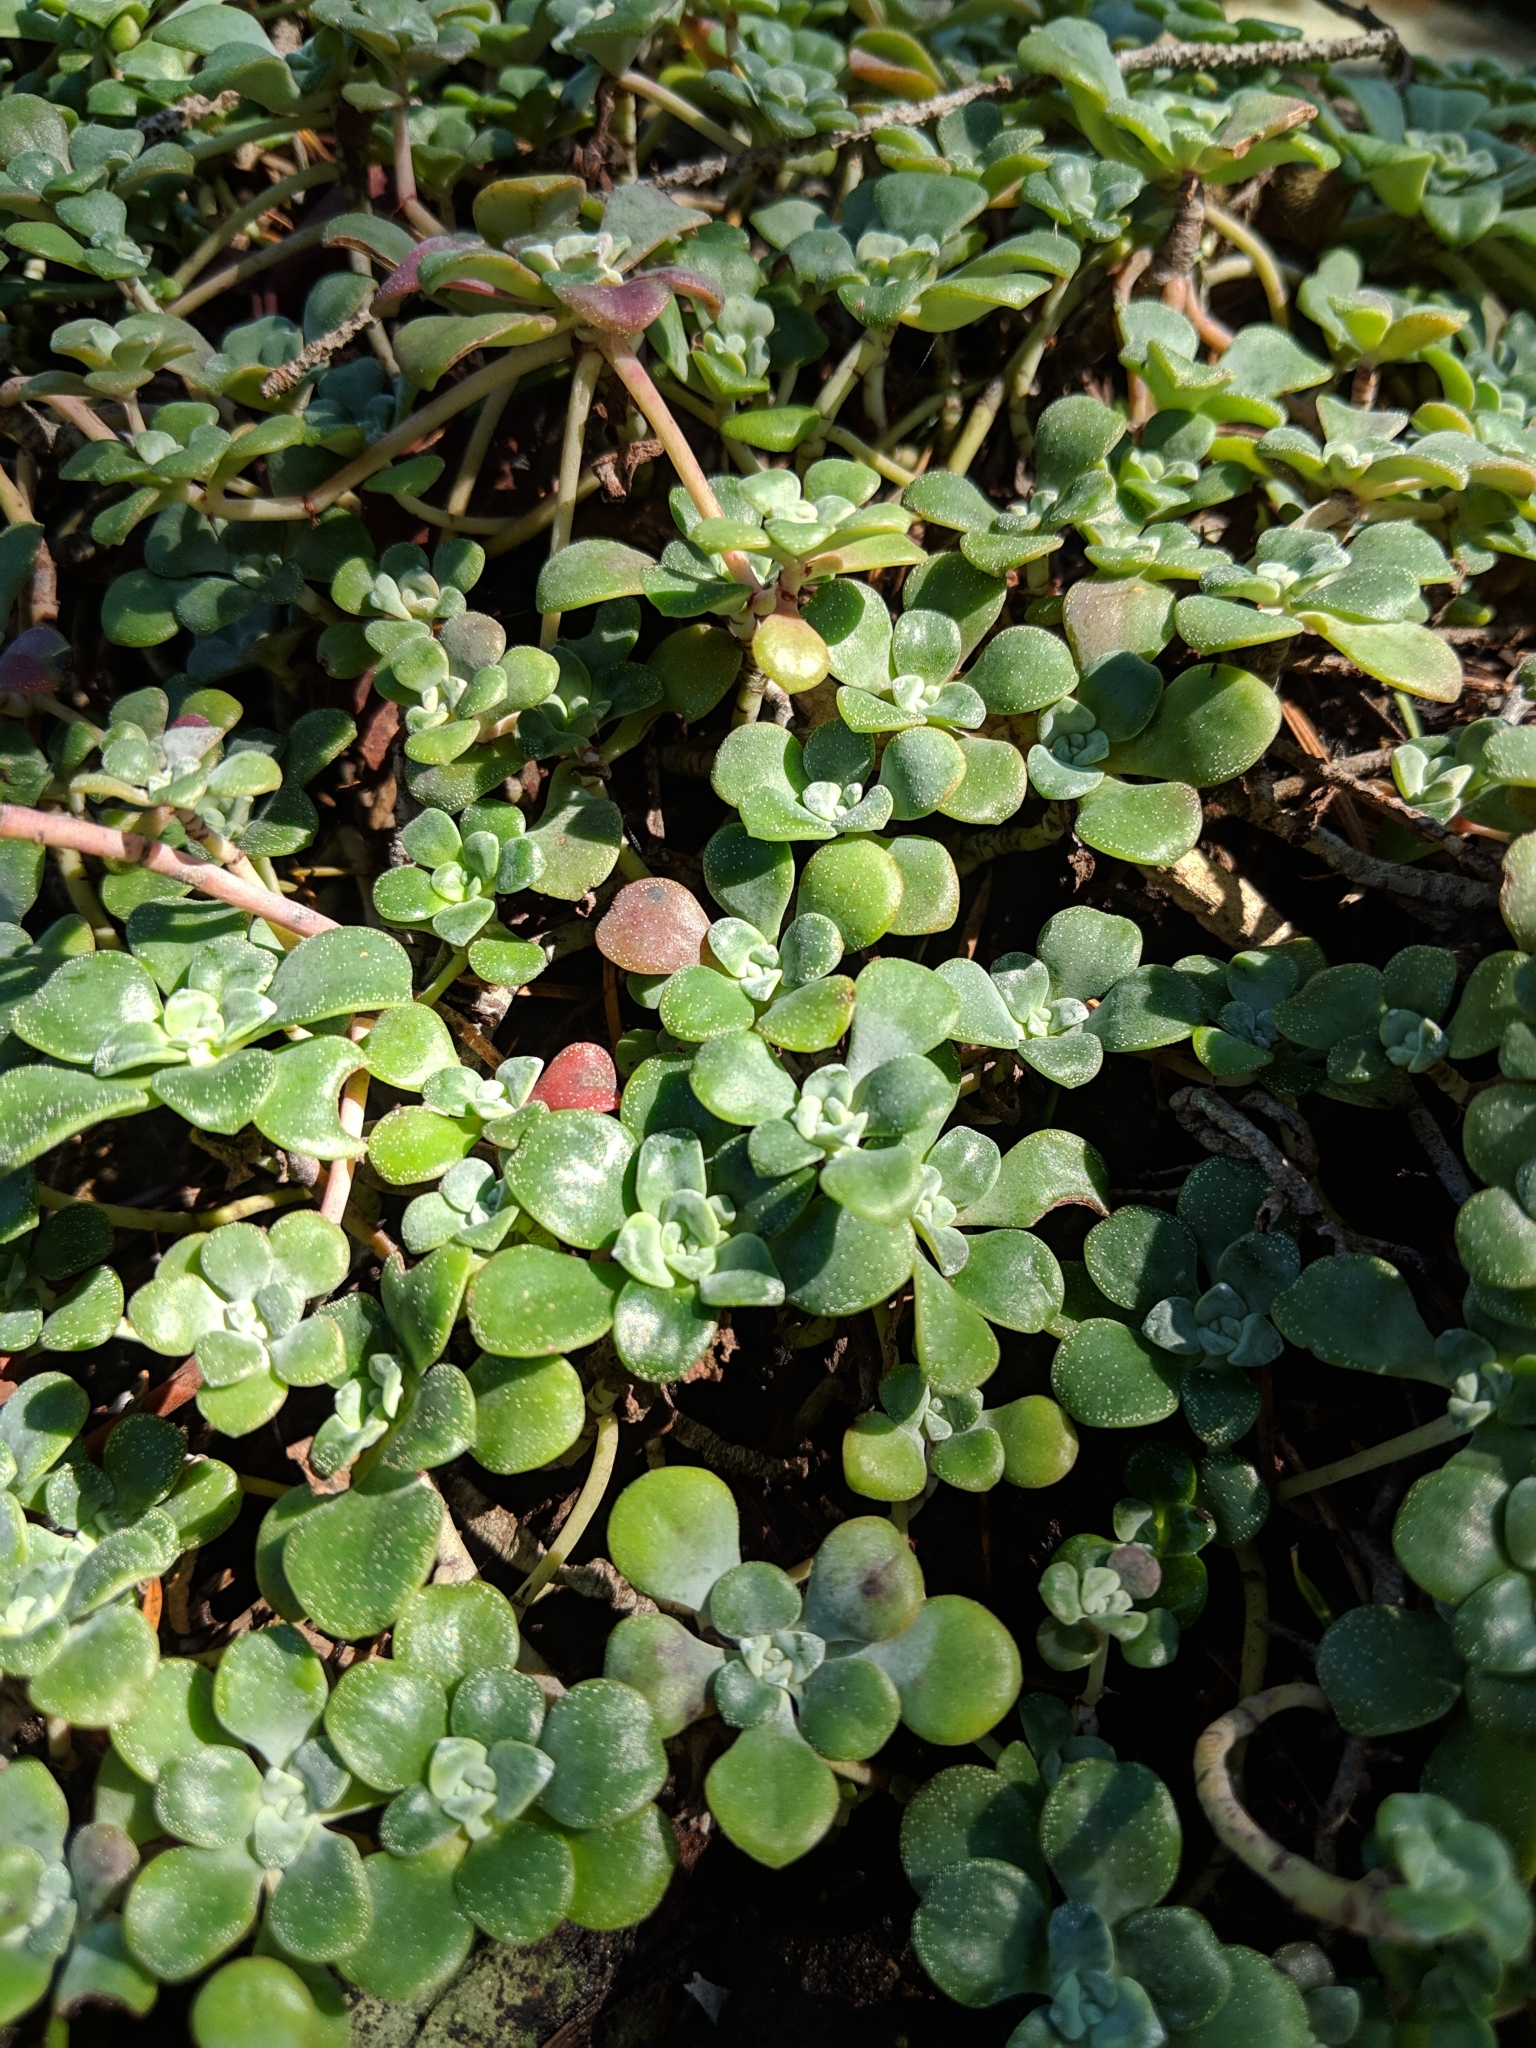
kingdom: Plantae
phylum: Tracheophyta
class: Magnoliopsida
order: Saxifragales
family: Crassulaceae
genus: Sedum
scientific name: Sedum spathulifolium
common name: Colorado stonecrop
